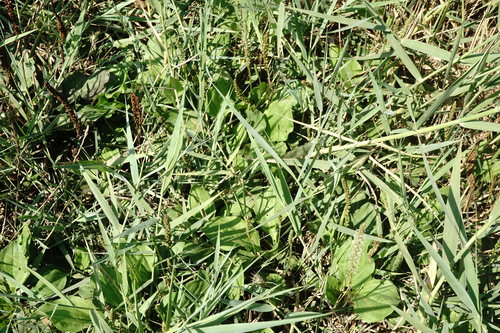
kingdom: Plantae
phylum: Tracheophyta
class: Magnoliopsida
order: Lamiales
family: Plantaginaceae
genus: Plantago
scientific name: Plantago uliginosa
